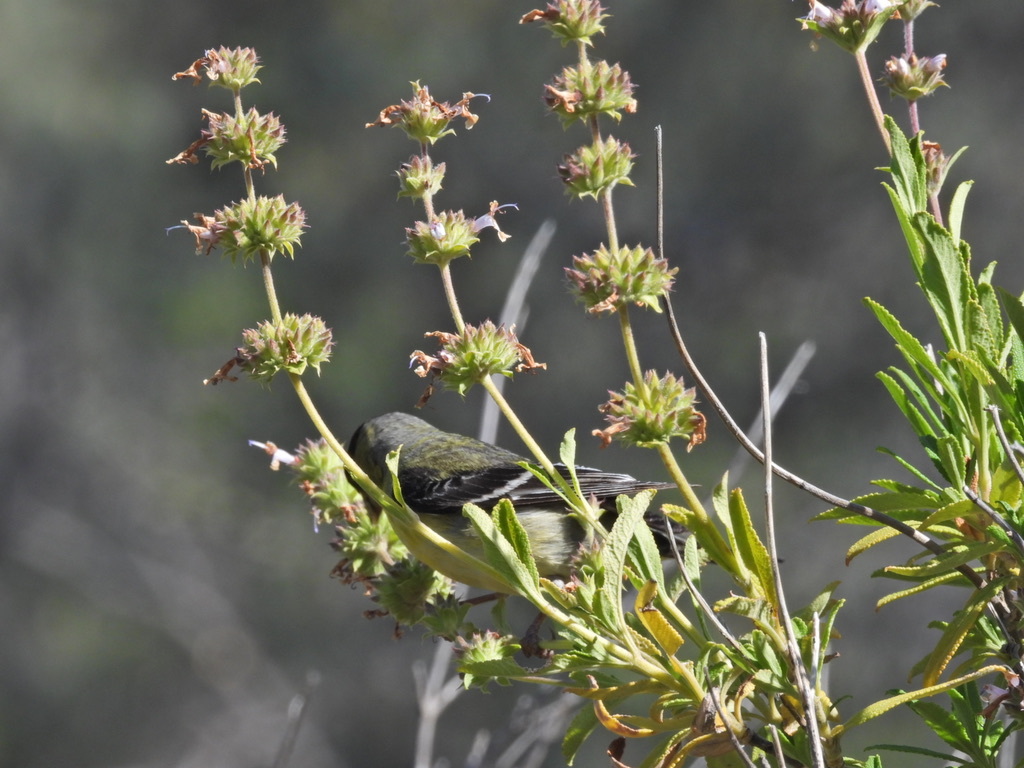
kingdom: Animalia
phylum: Chordata
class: Aves
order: Passeriformes
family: Fringillidae
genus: Spinus
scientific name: Spinus psaltria
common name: Lesser goldfinch
